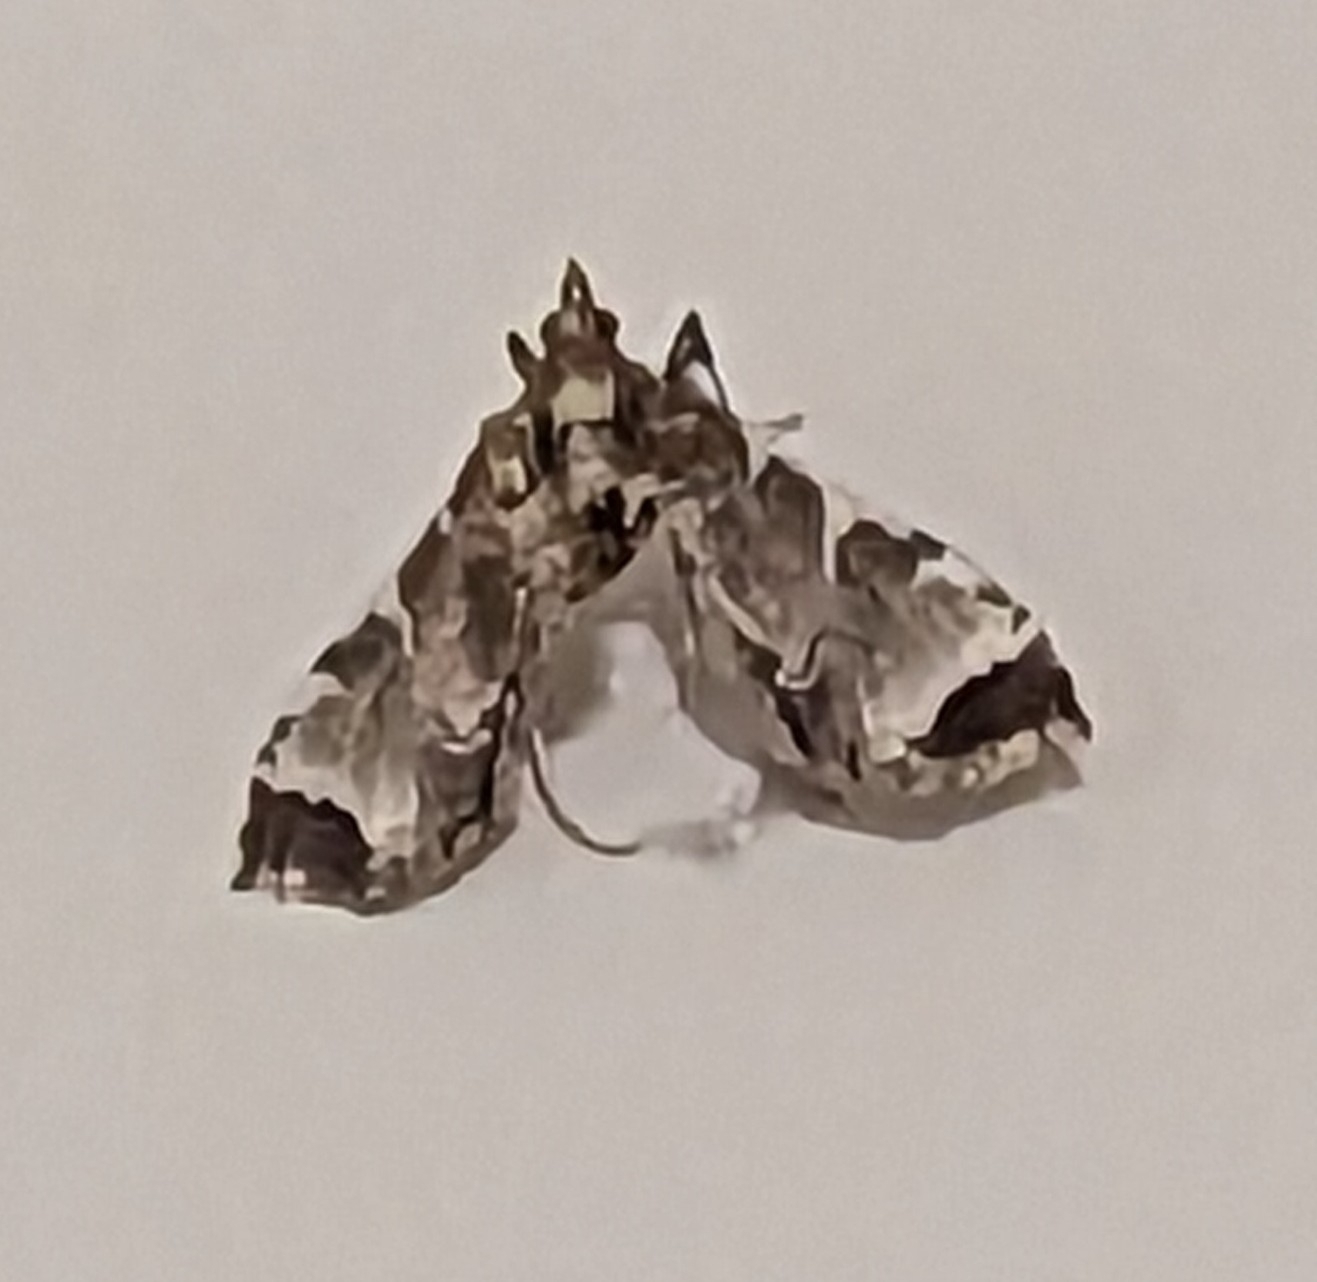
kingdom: Animalia
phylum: Arthropoda
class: Insecta
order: Lepidoptera
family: Crambidae
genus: Sceliodes
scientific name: Sceliodes cordalis
